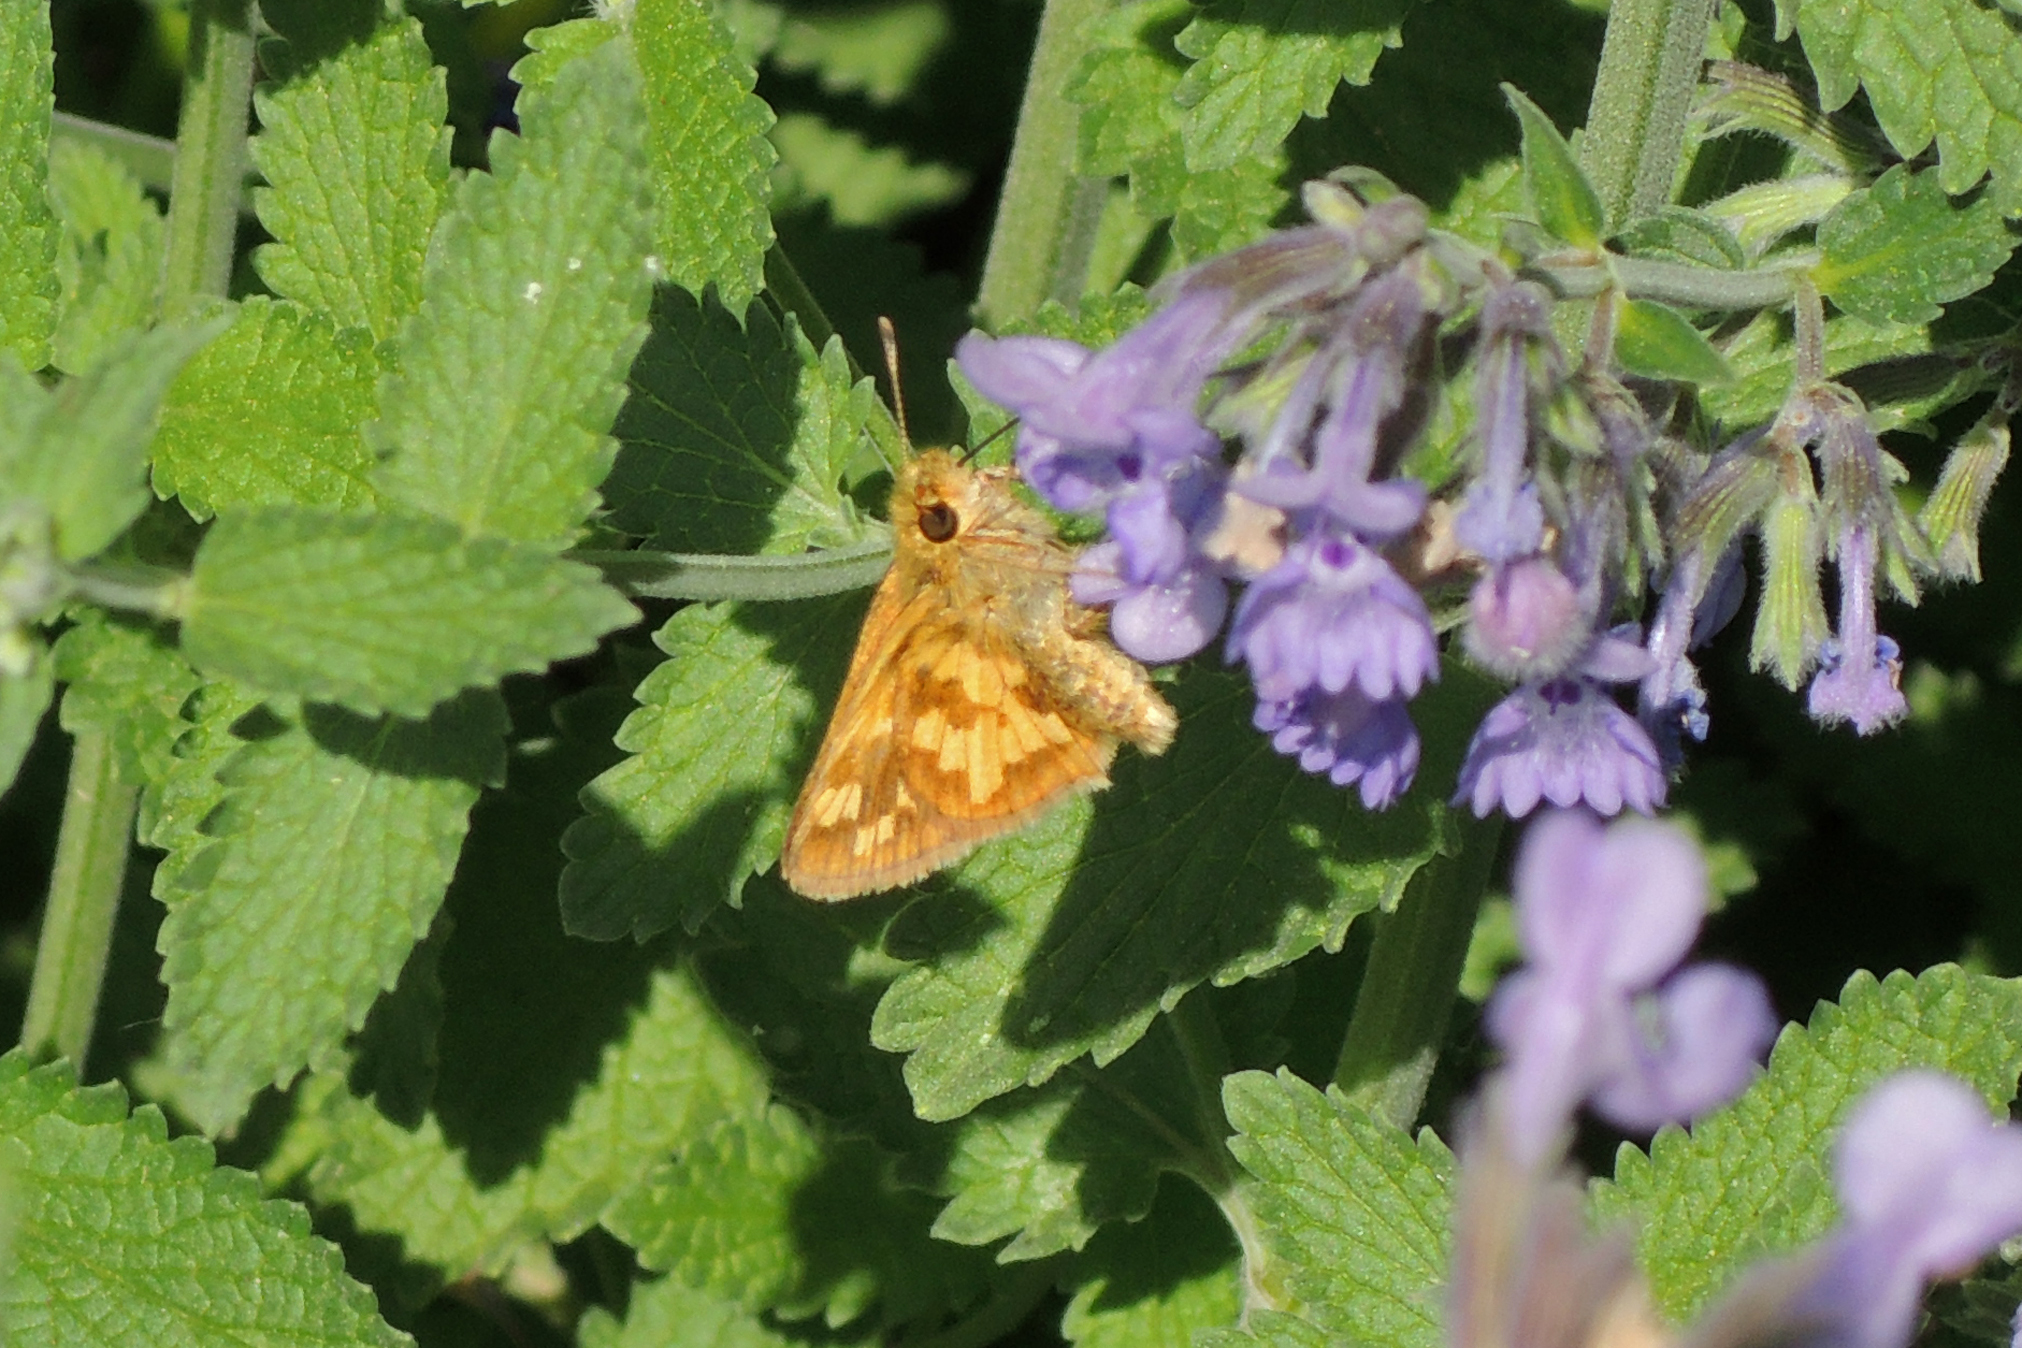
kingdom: Animalia
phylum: Arthropoda
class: Insecta
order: Lepidoptera
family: Hesperiidae
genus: Polites
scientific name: Polites coras
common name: Peck's skipper
